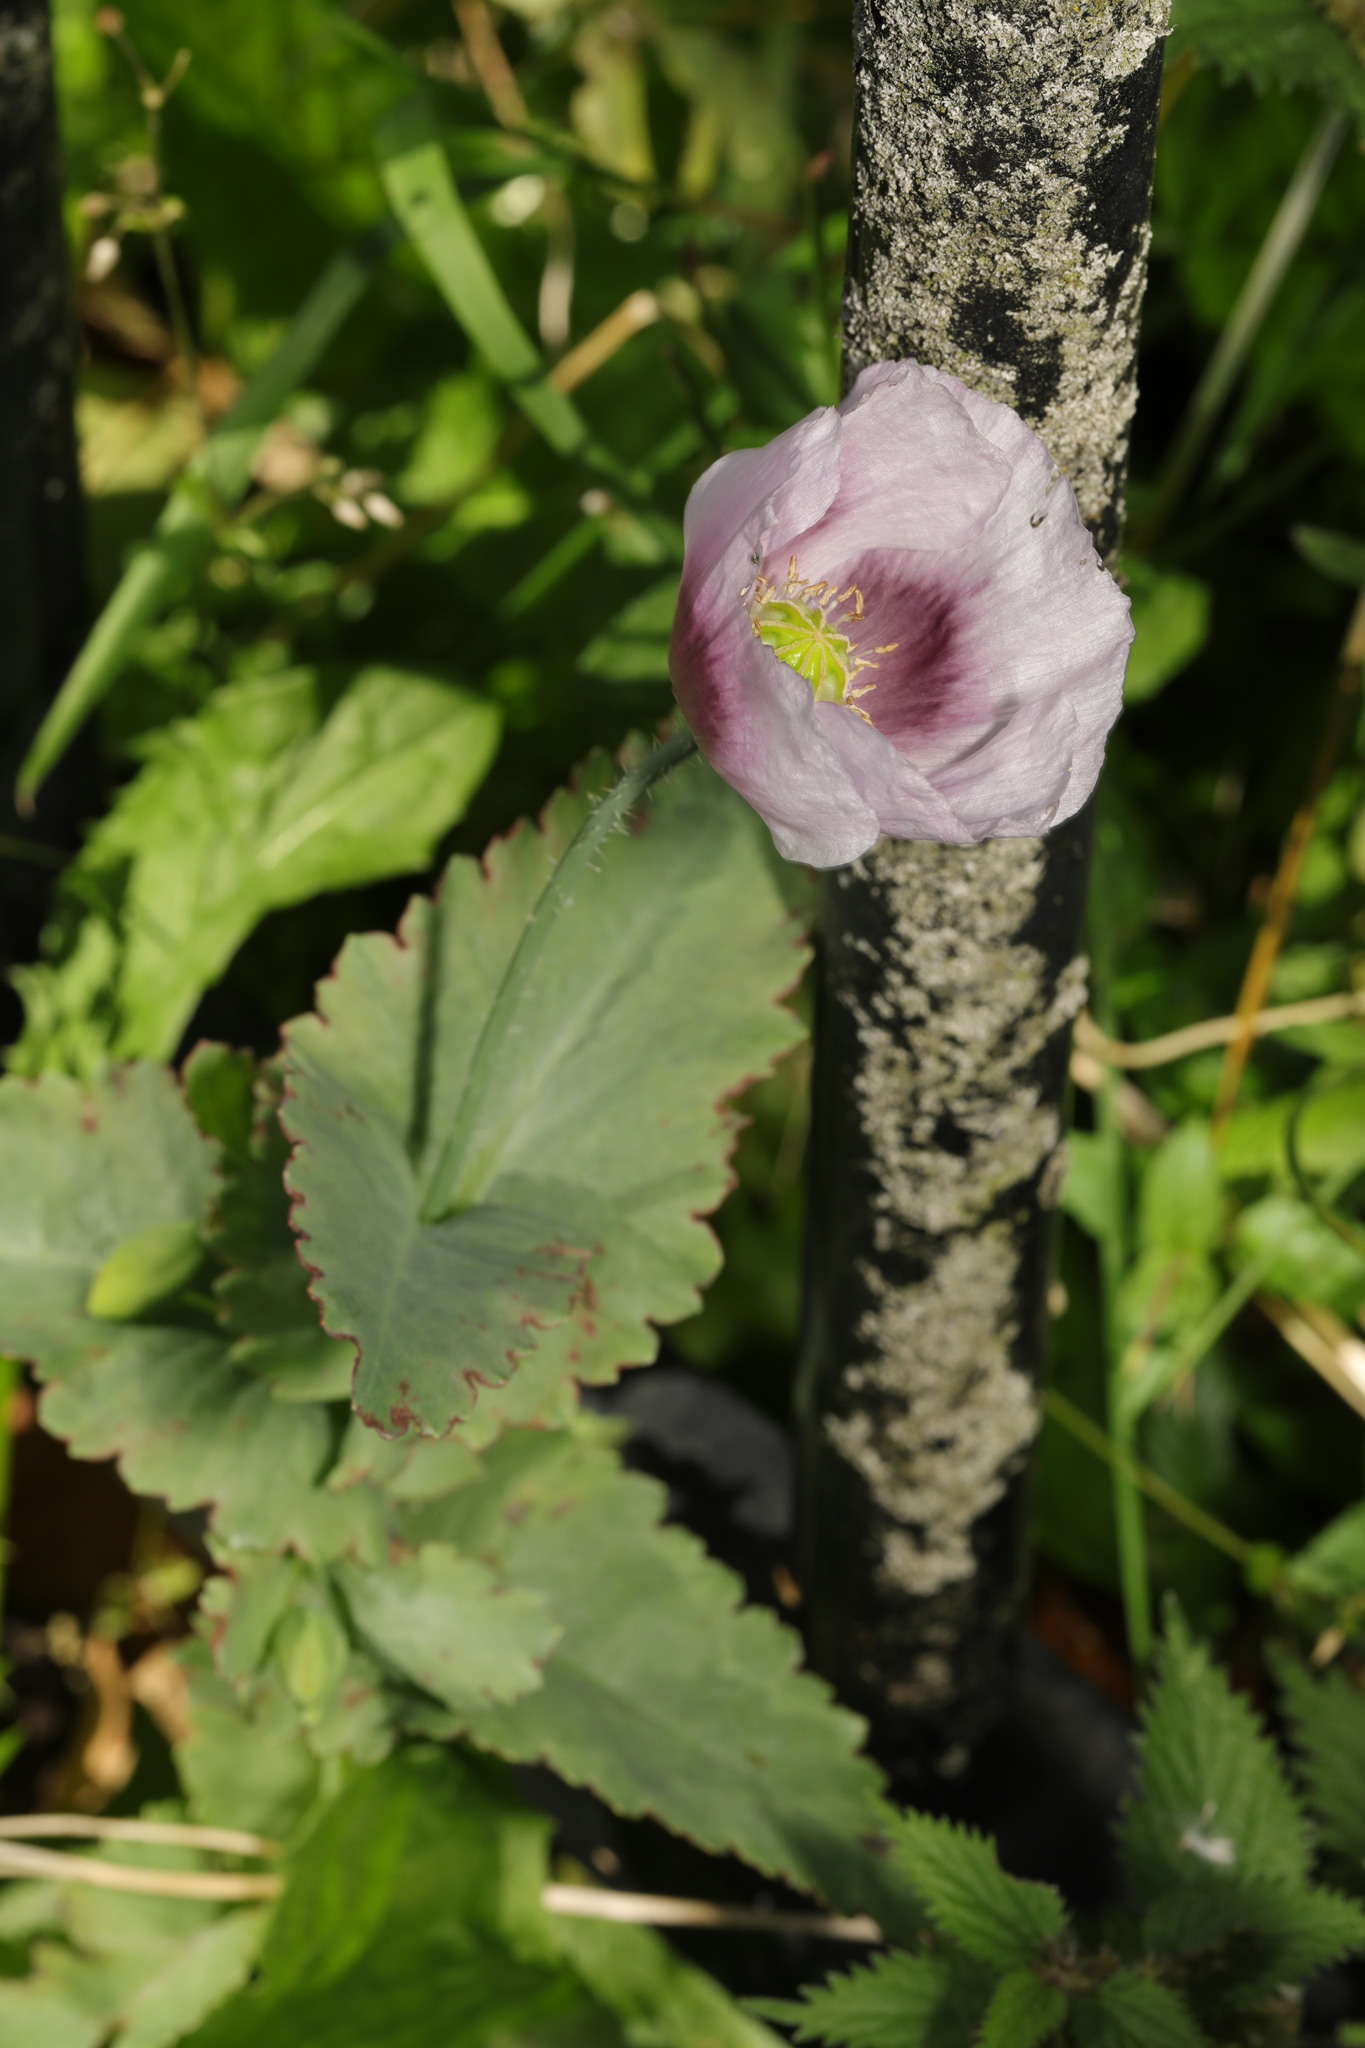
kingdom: Plantae
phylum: Tracheophyta
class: Magnoliopsida
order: Ranunculales
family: Papaveraceae
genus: Papaver
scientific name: Papaver somniferum
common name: Opium poppy
